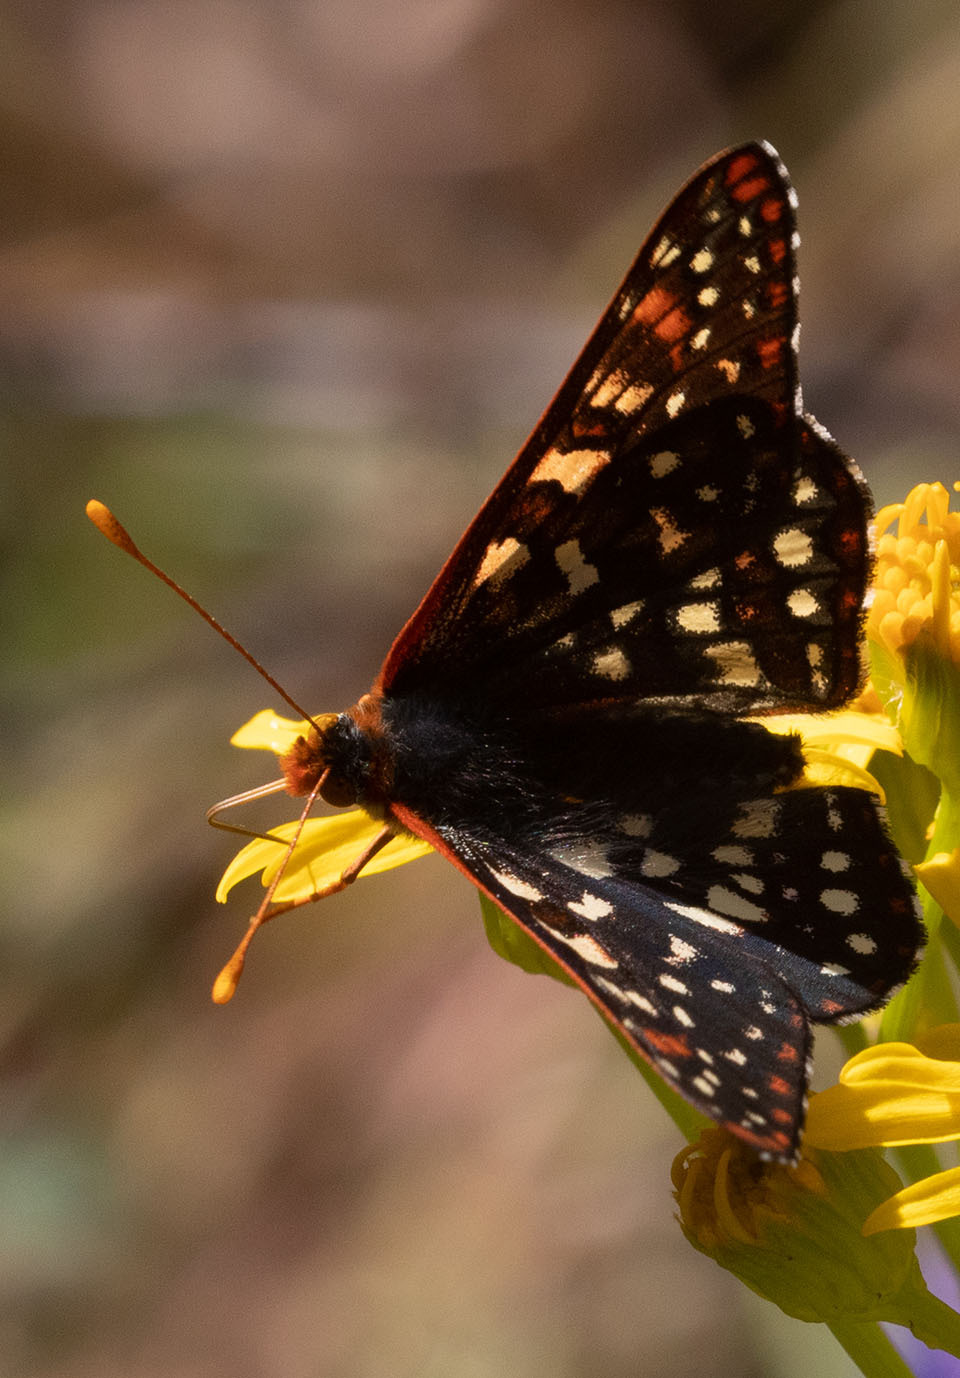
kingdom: Animalia
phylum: Arthropoda
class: Insecta
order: Lepidoptera
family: Nymphalidae
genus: Occidryas
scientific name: Occidryas chalcedona
